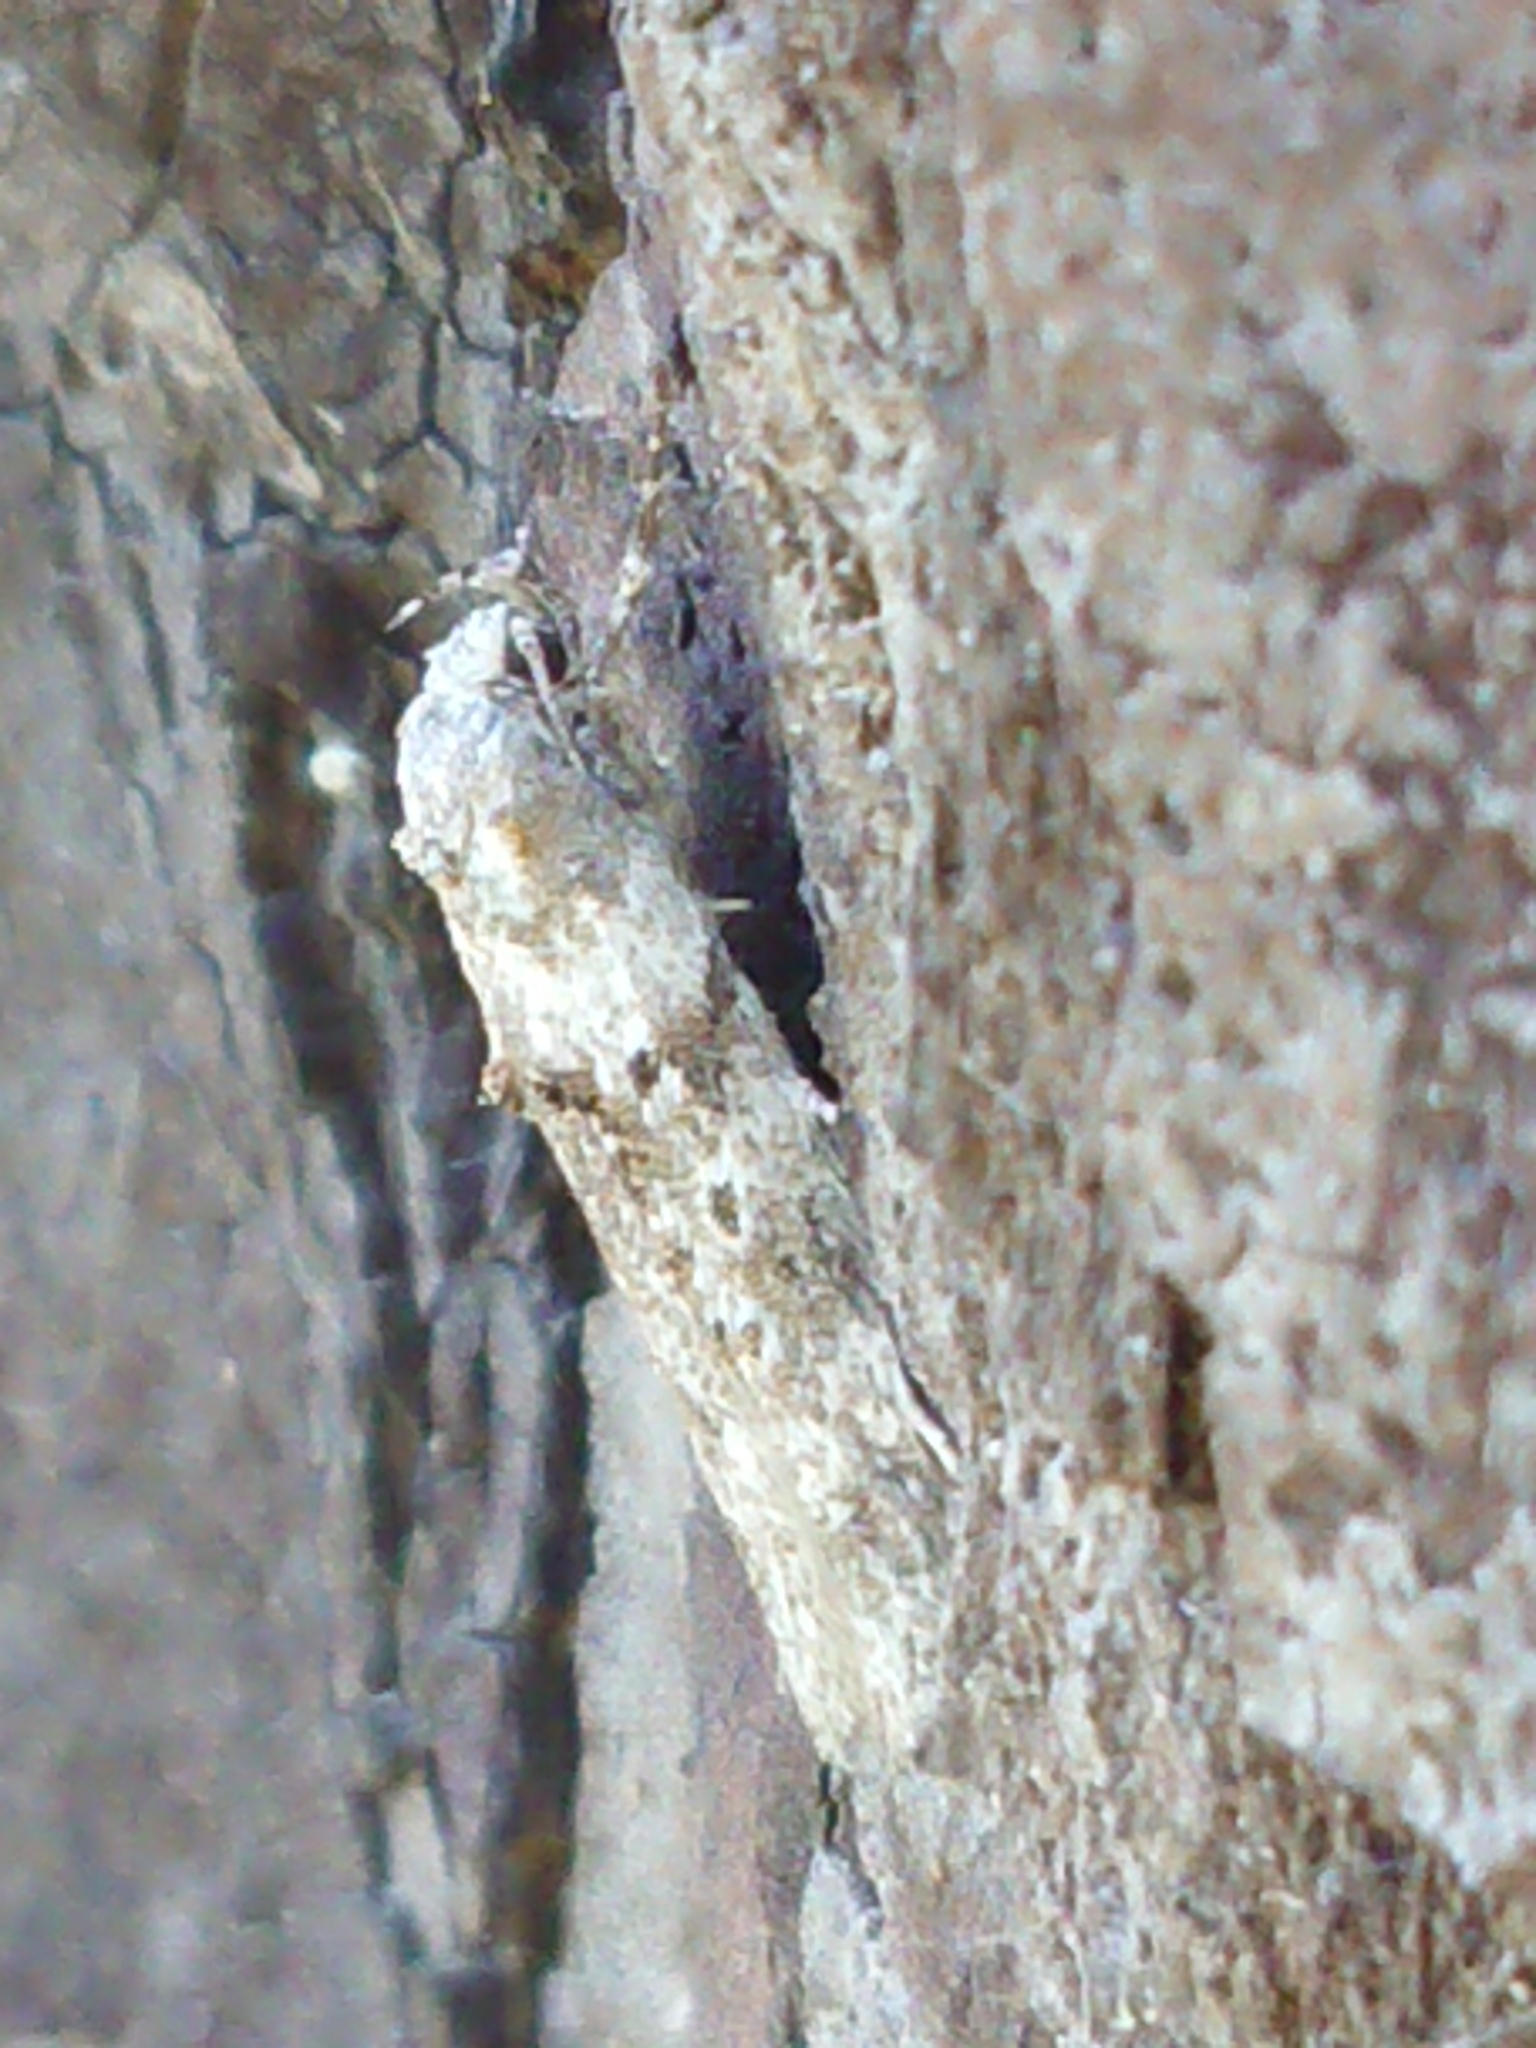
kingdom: Animalia
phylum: Arthropoda
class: Insecta
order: Lepidoptera
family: Oecophoridae
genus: Izatha
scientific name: Izatha convulsella
